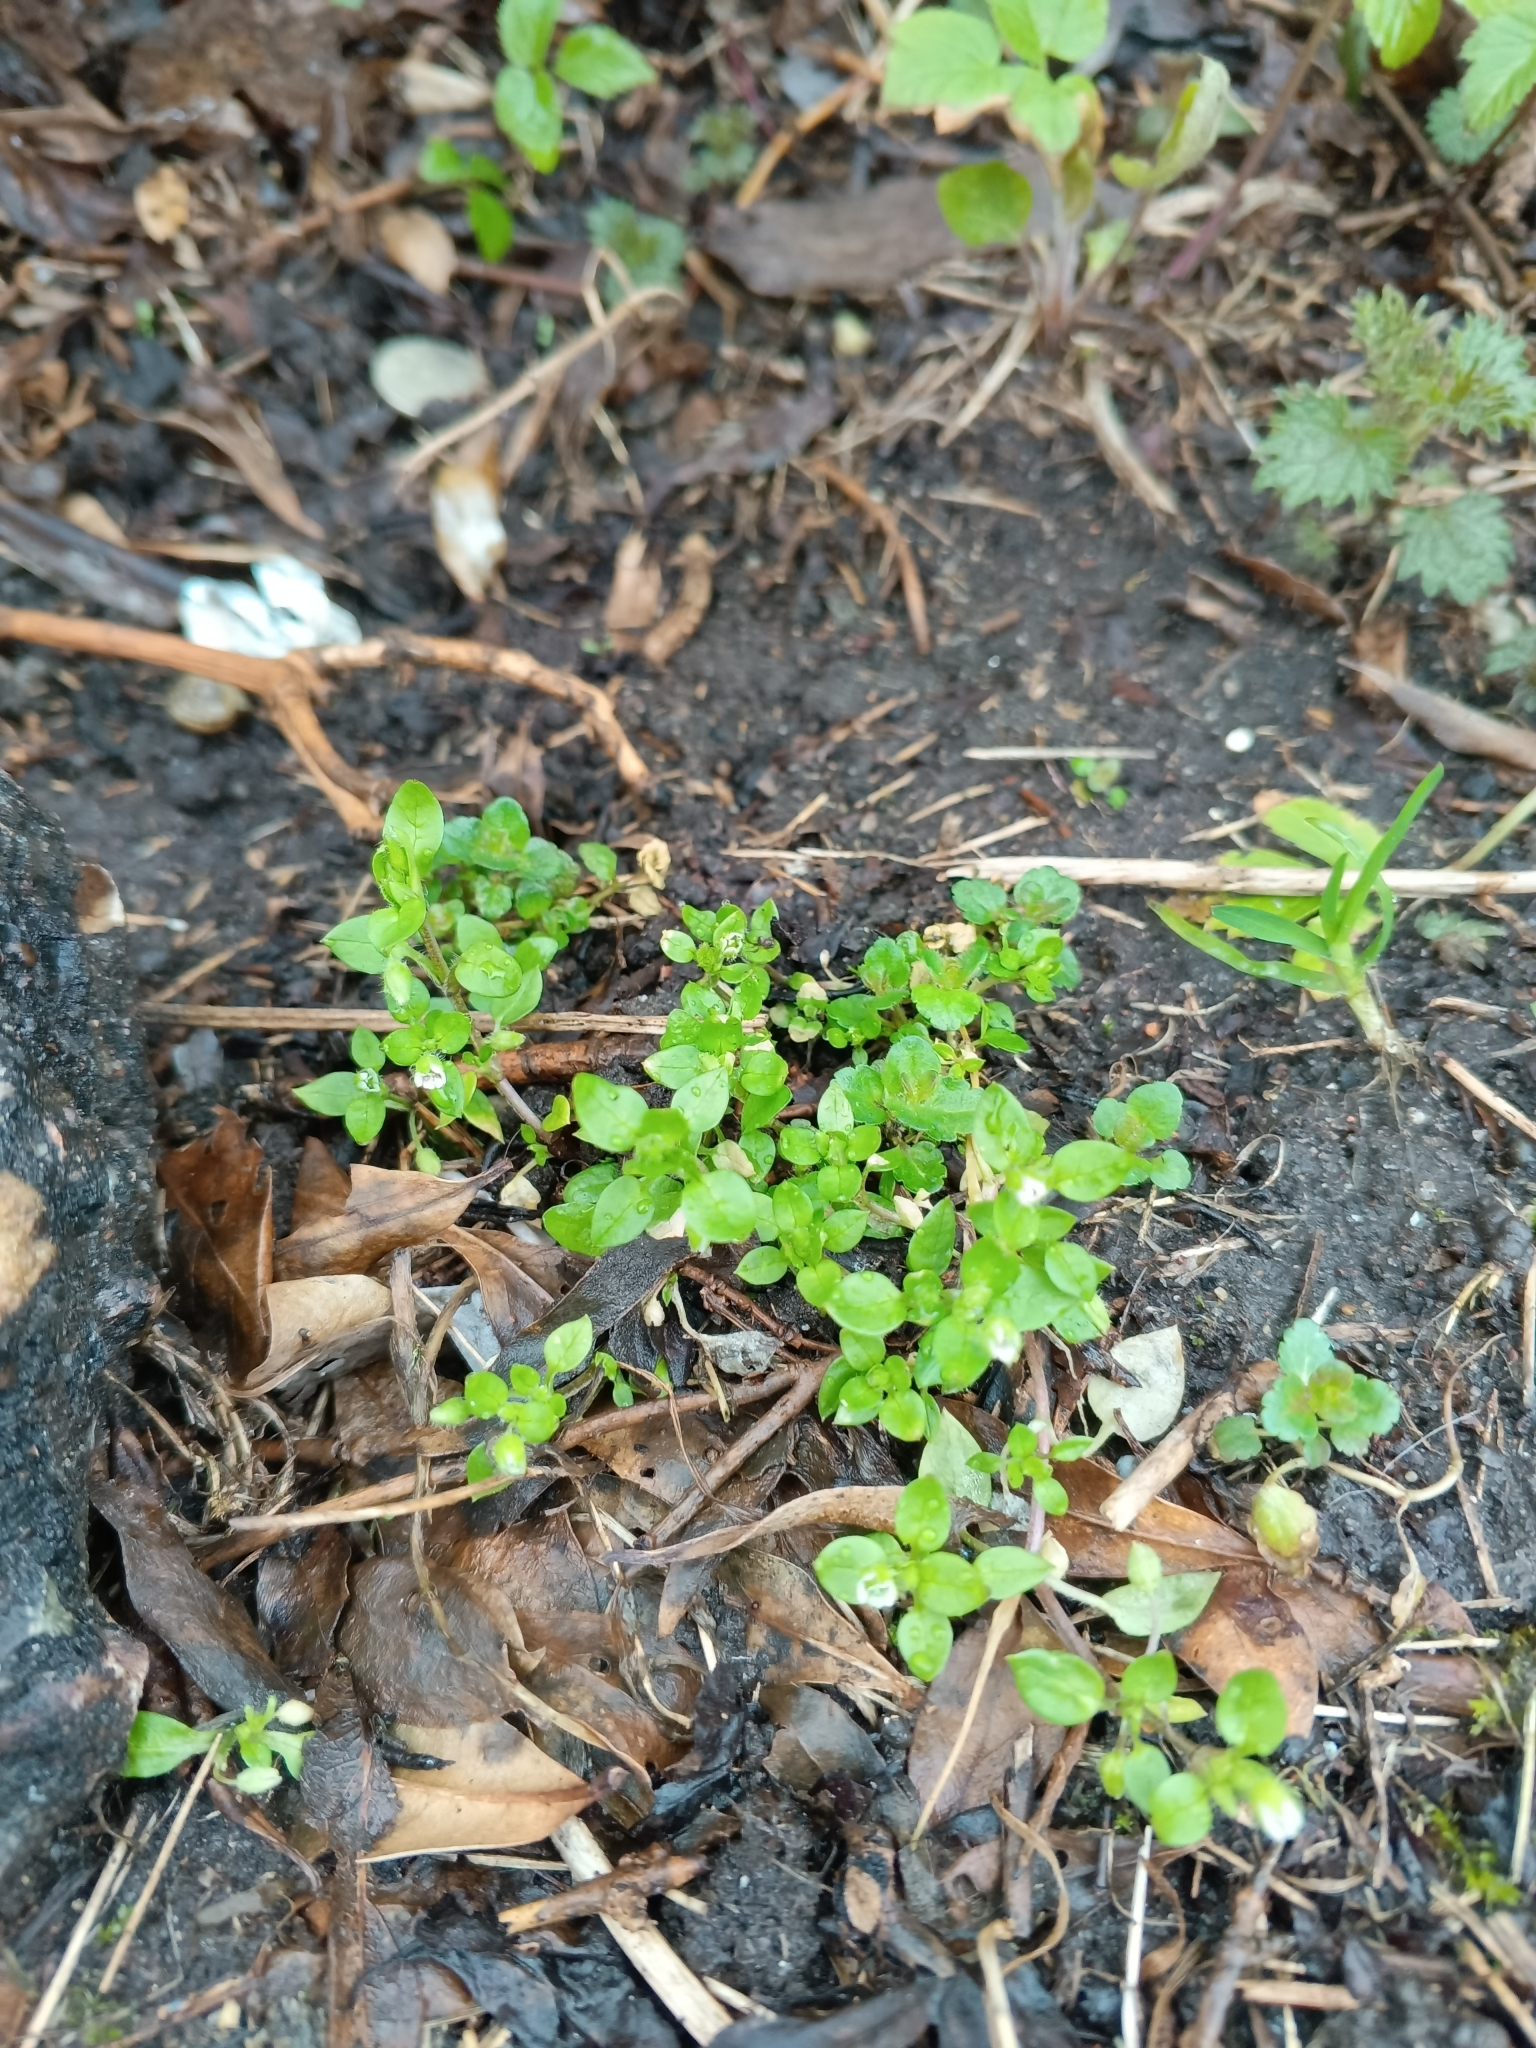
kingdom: Plantae
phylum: Tracheophyta
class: Magnoliopsida
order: Caryophyllales
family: Caryophyllaceae
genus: Stellaria
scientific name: Stellaria media
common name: Common chickweed
